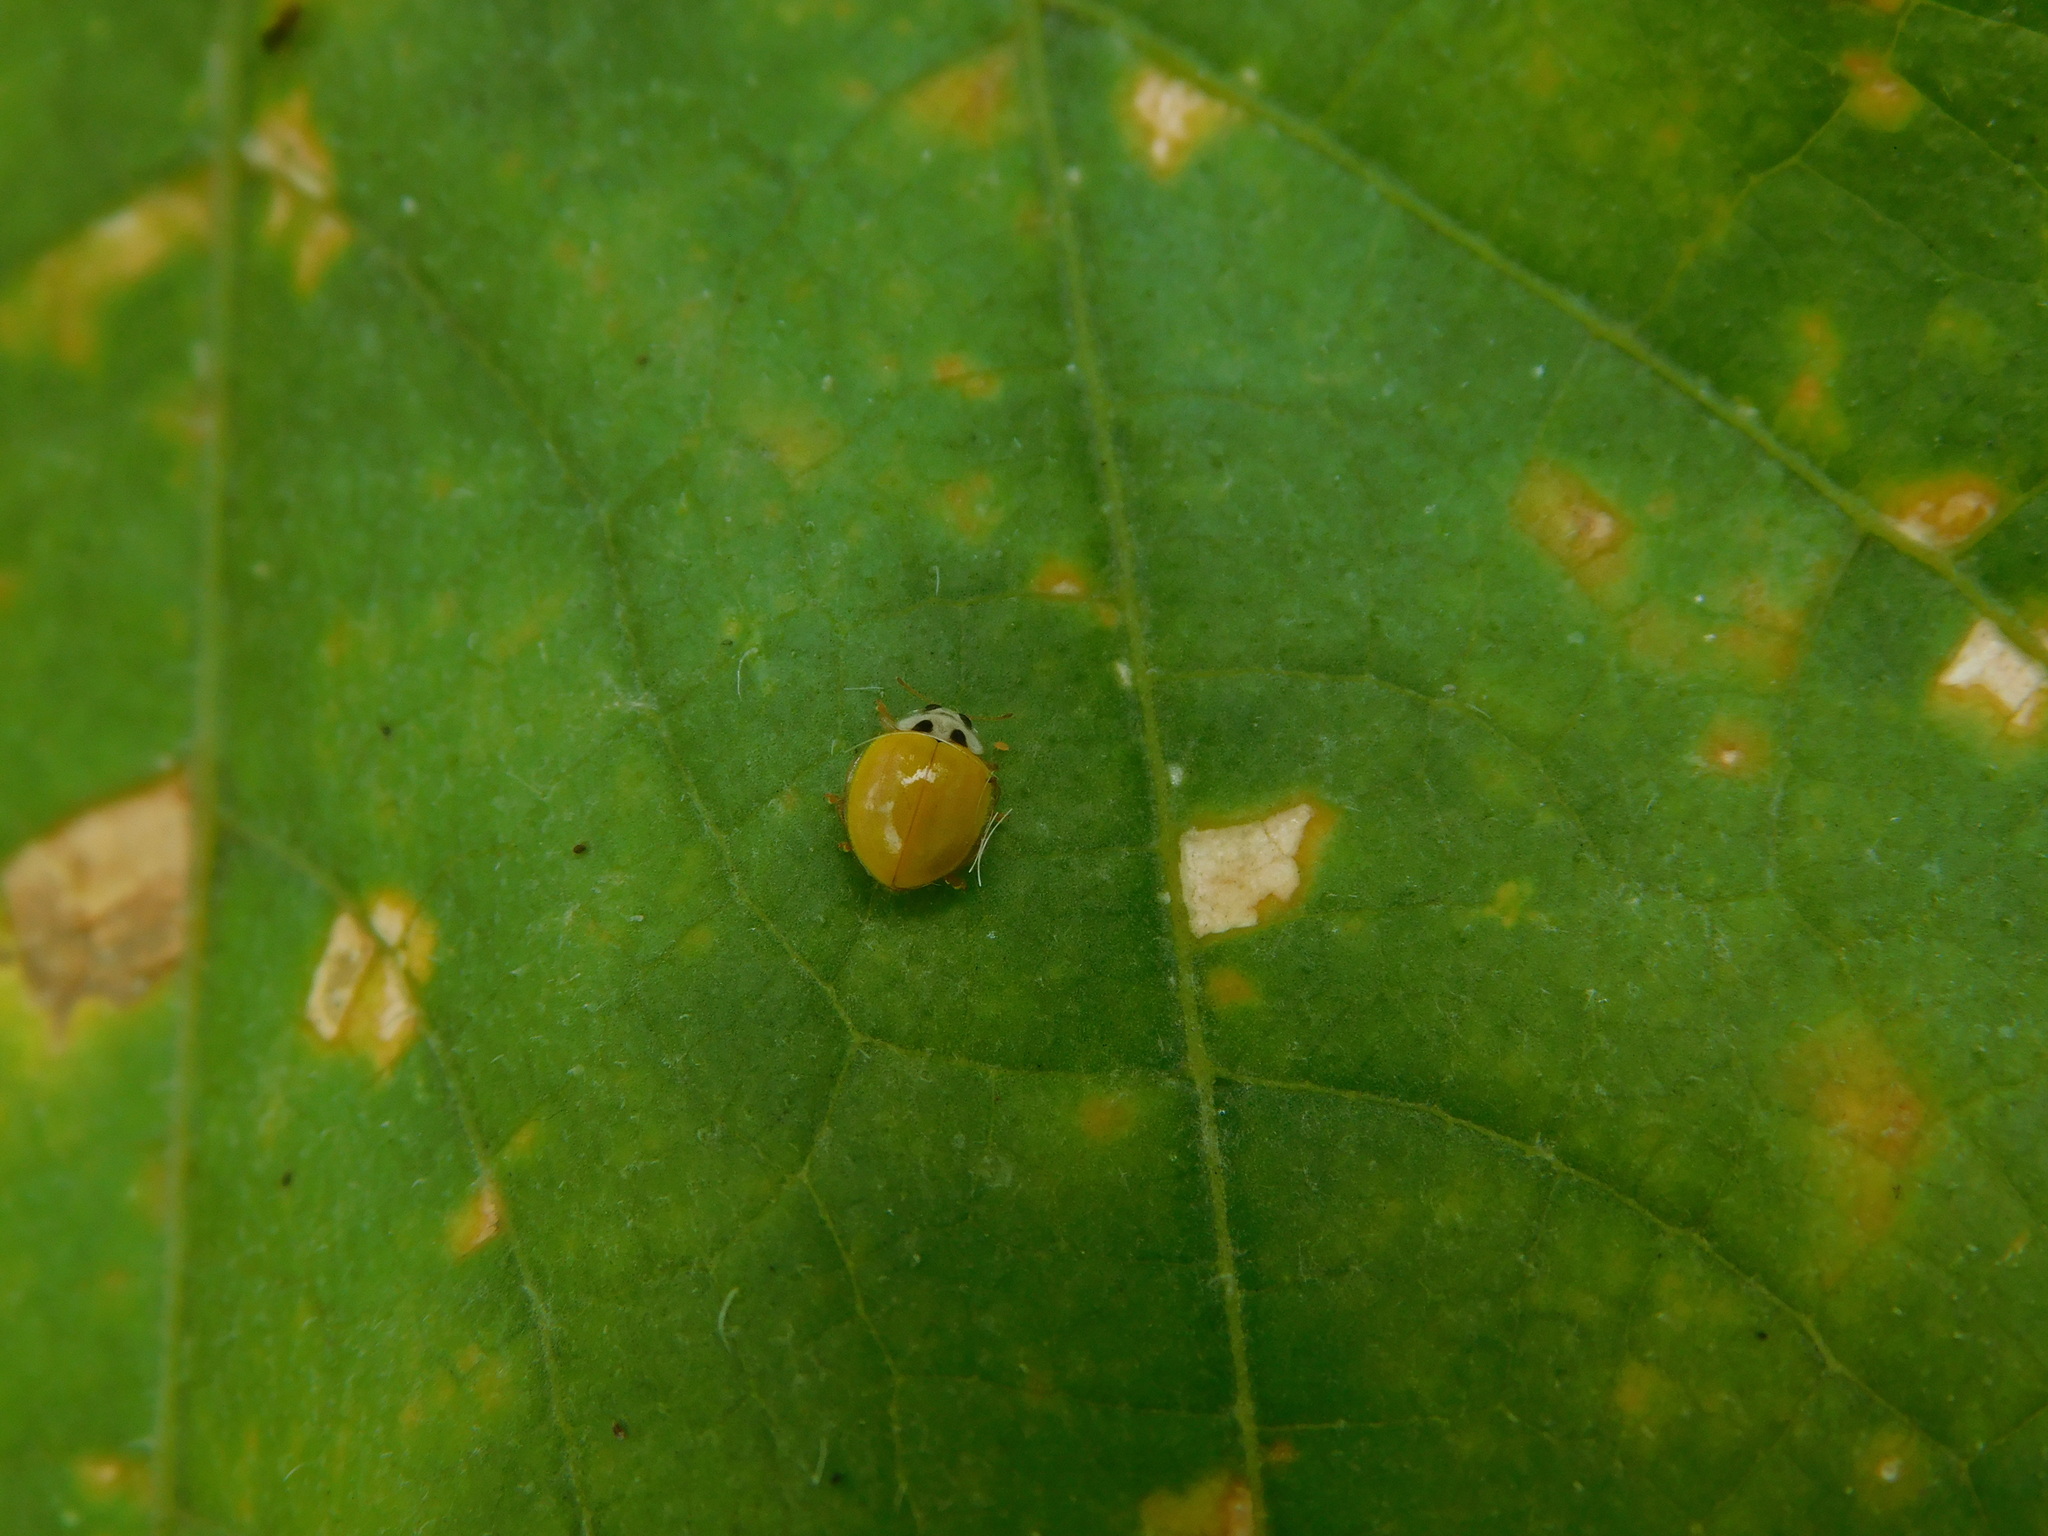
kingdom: Animalia
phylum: Arthropoda
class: Insecta
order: Coleoptera
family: Coccinellidae
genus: Illeis
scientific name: Illeis koebelei
